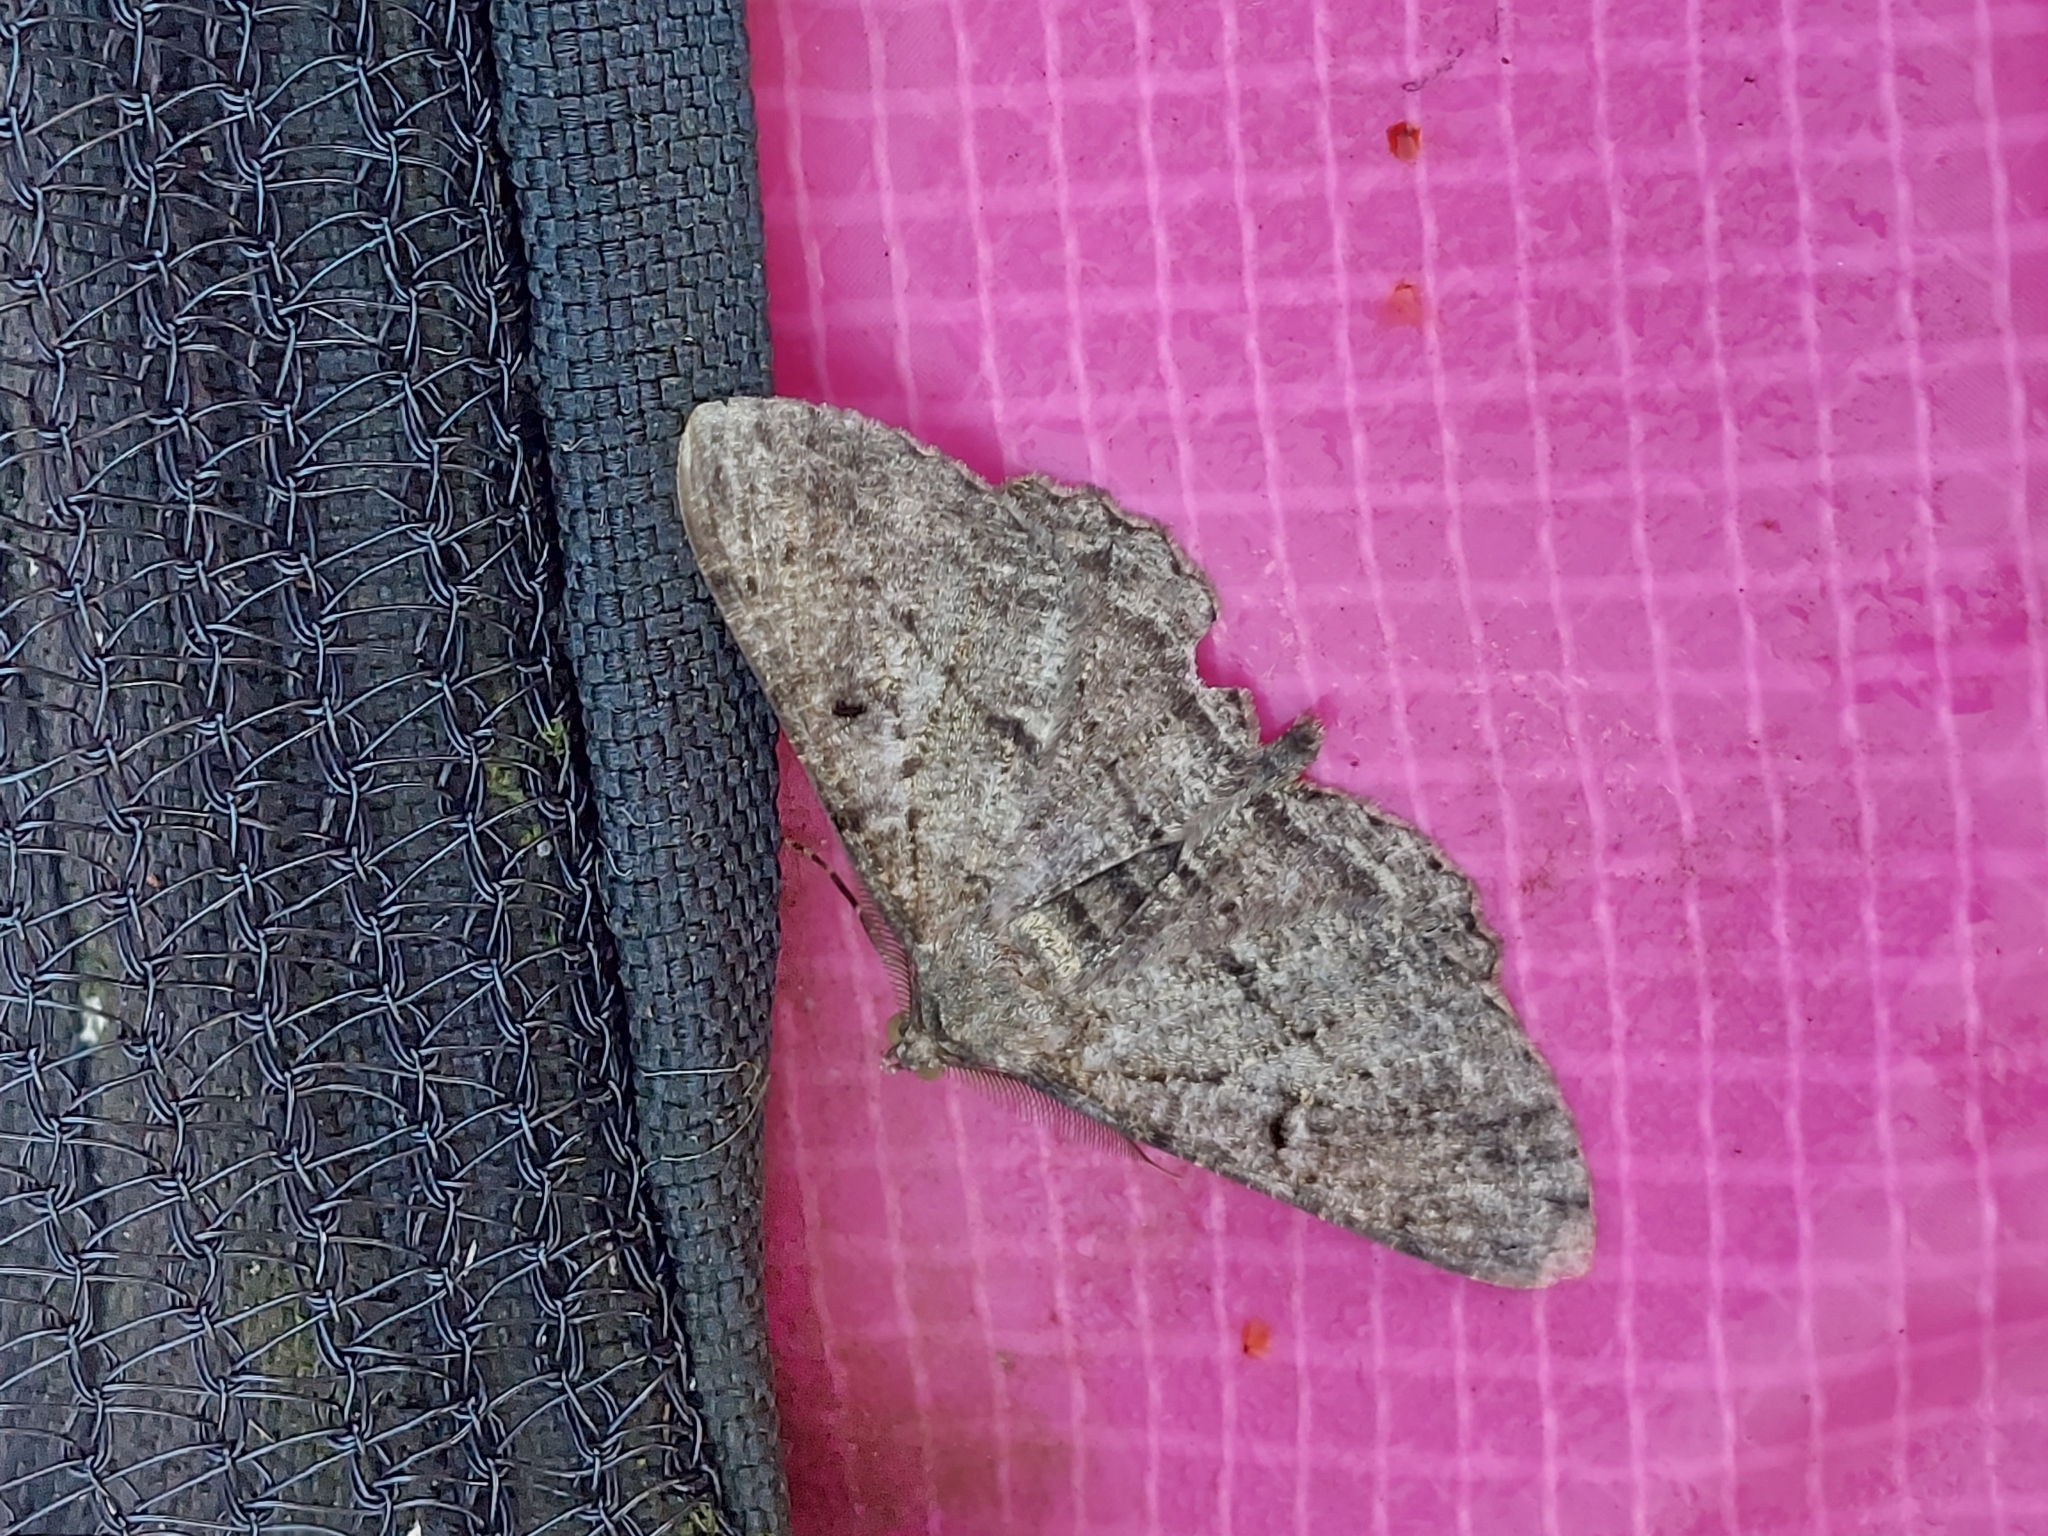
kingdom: Animalia
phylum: Arthropoda
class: Insecta
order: Lepidoptera
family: Geometridae
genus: Peribatodes
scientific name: Peribatodes rhomboidaria
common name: Willow beauty
